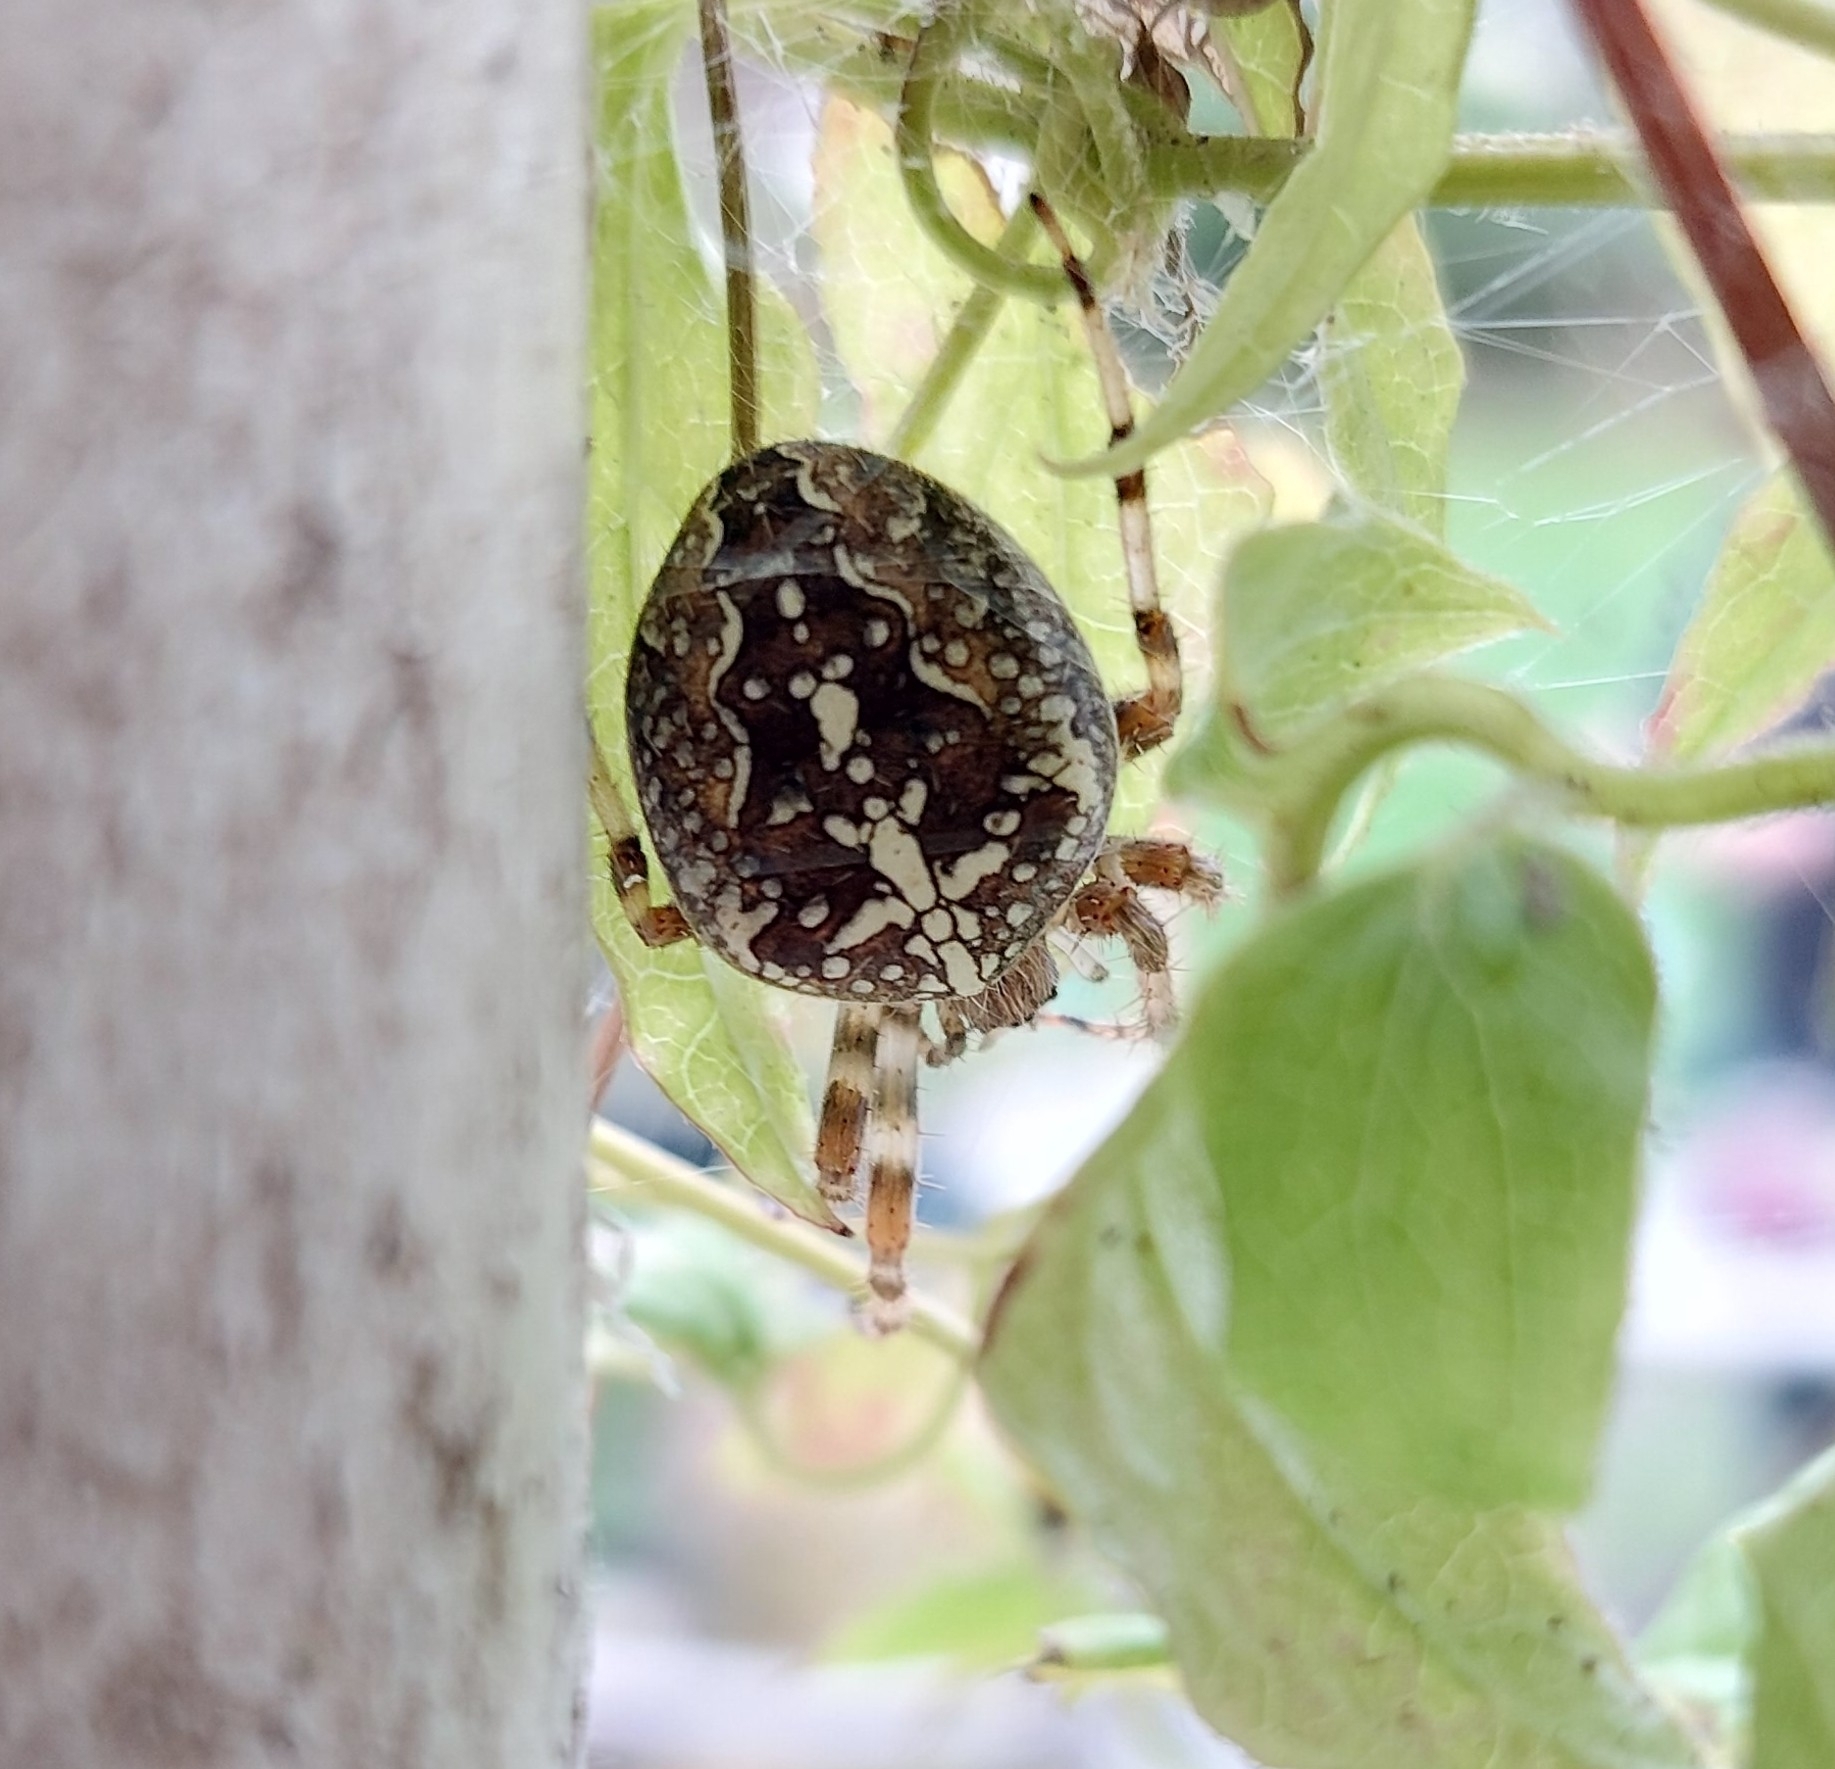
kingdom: Animalia
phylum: Arthropoda
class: Arachnida
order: Araneae
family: Araneidae
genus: Araneus
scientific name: Araneus diadematus
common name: Cross orbweaver
